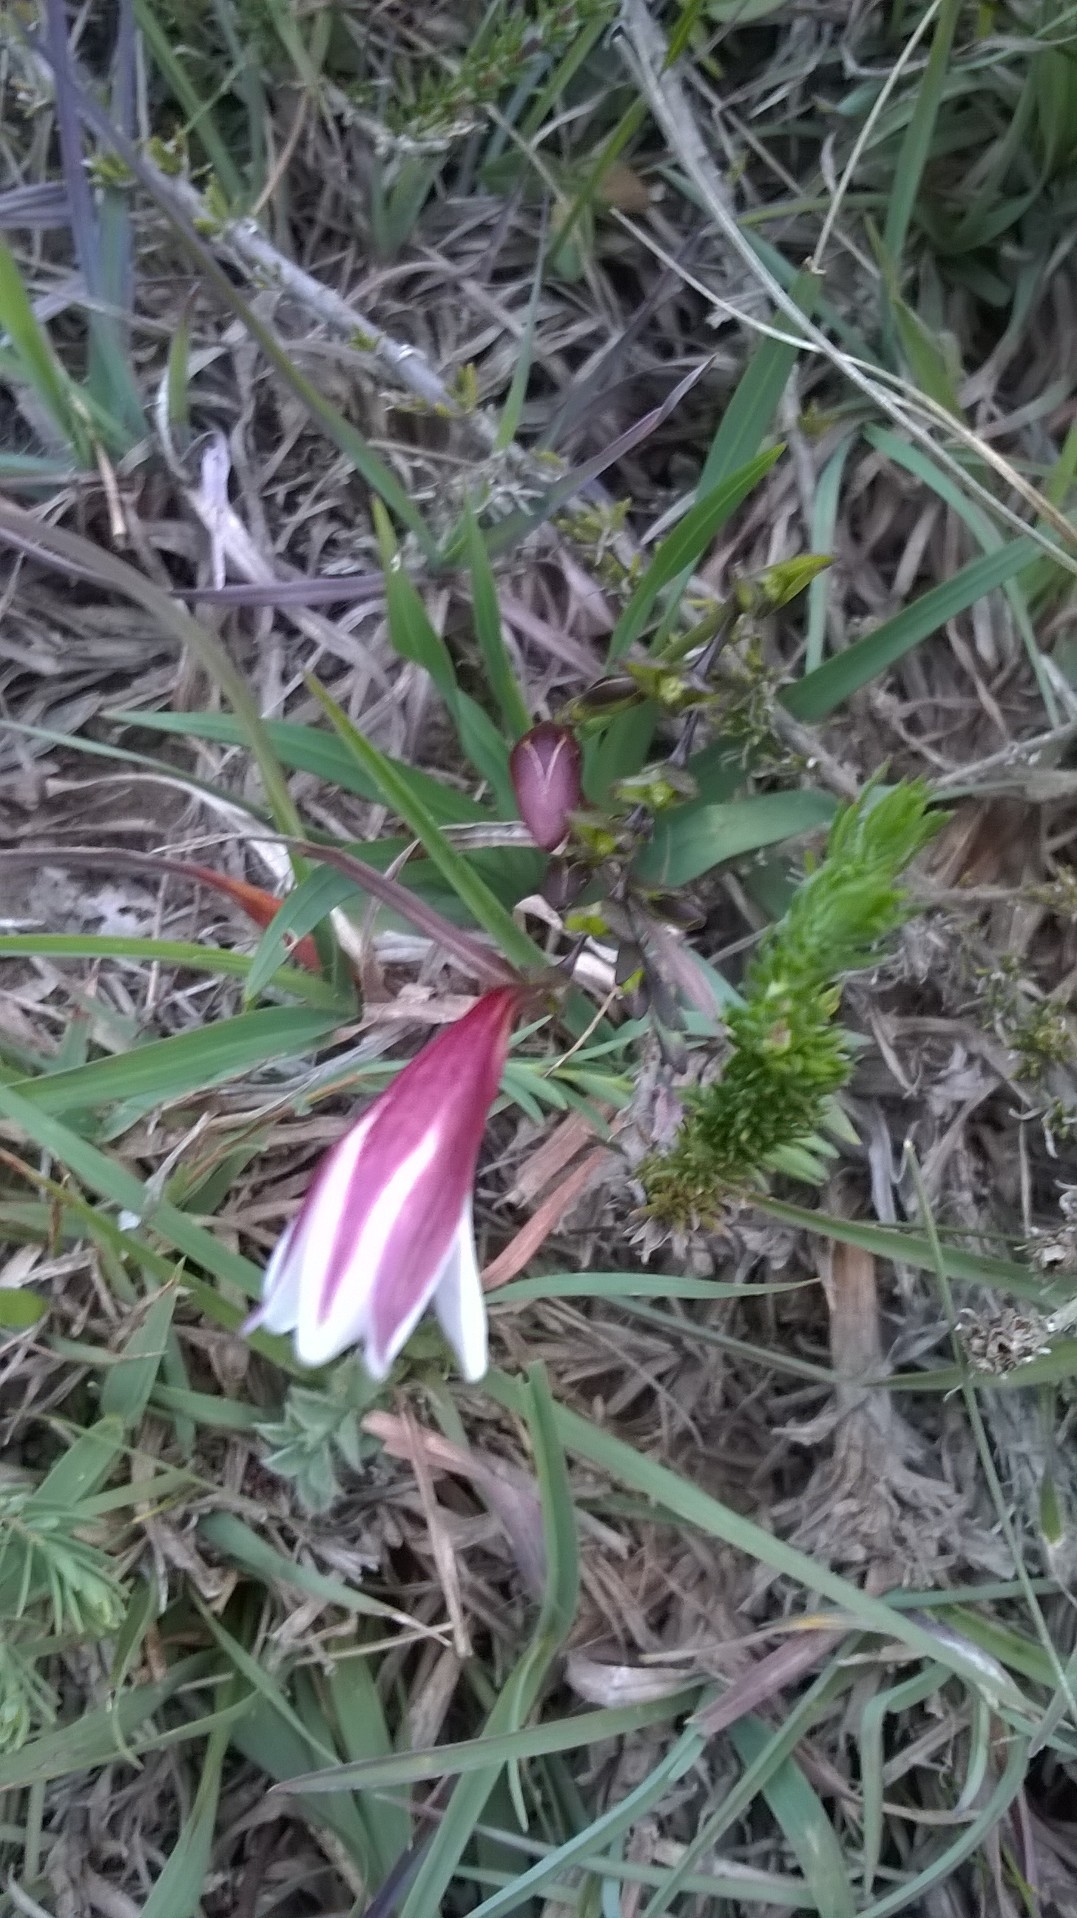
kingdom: Plantae
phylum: Tracheophyta
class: Liliopsida
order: Asparagales
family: Iridaceae
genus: Freesia
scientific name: Freesia sparrmanii
